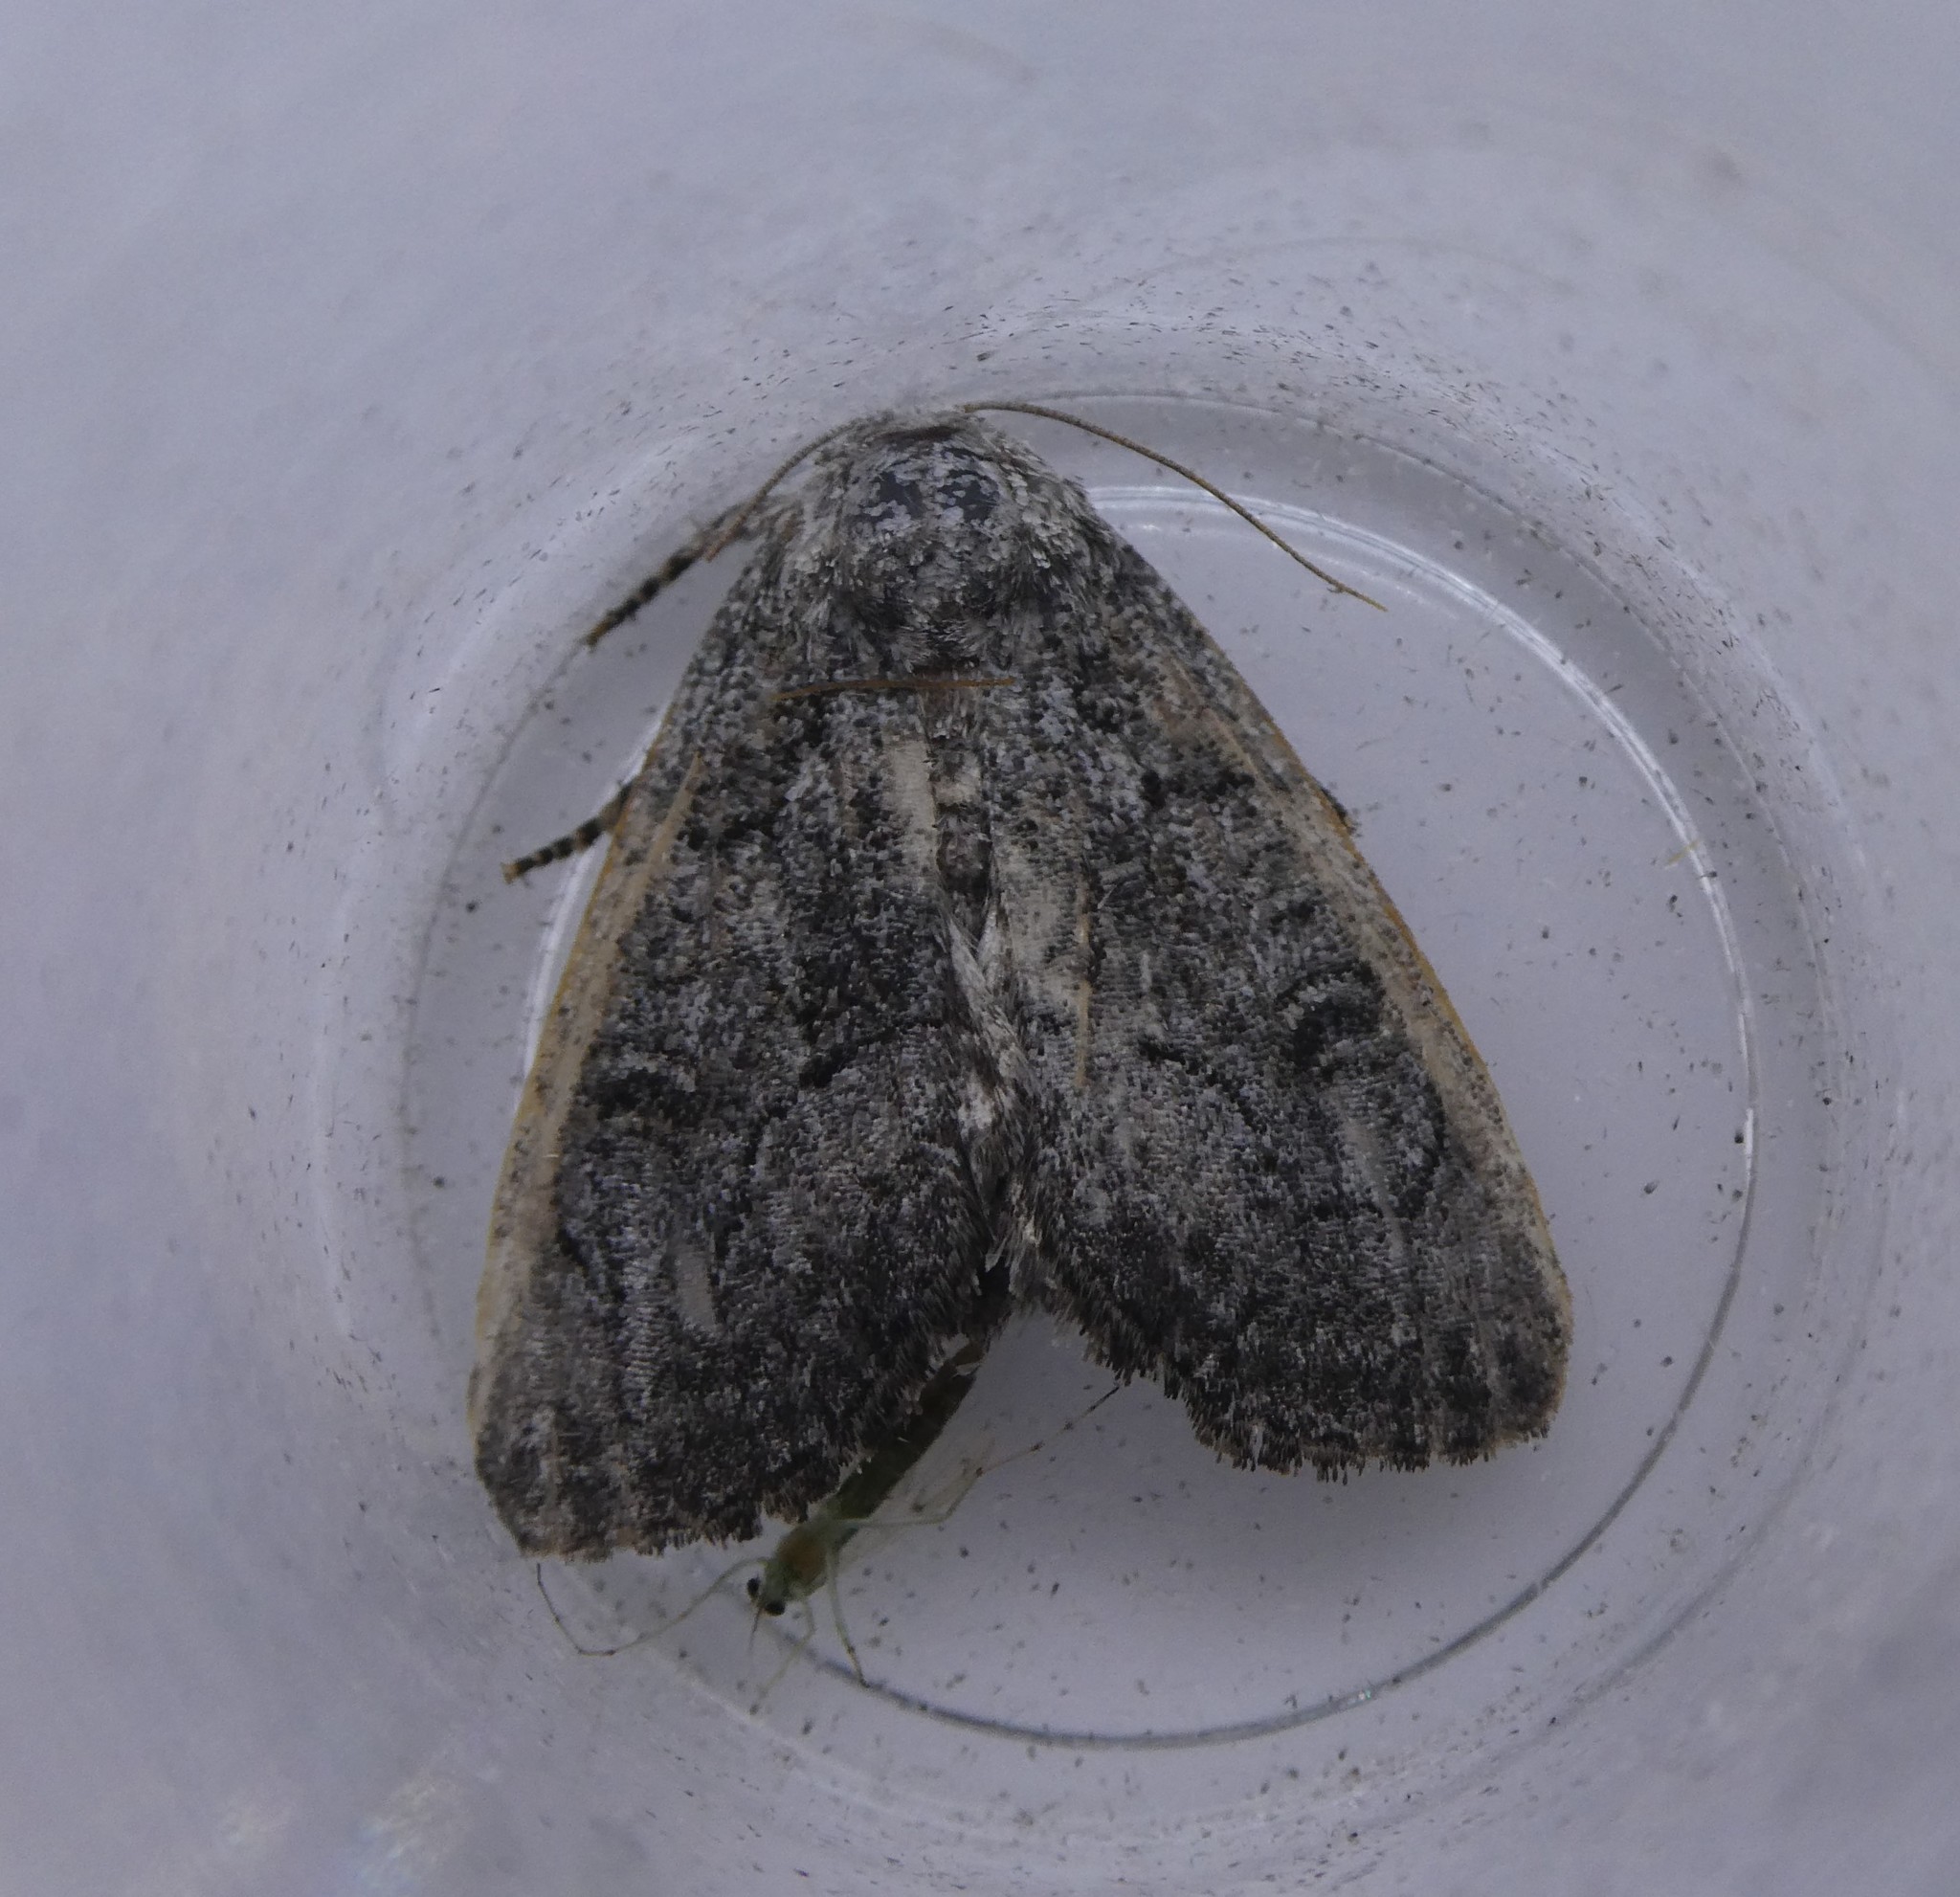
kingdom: Animalia
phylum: Arthropoda
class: Insecta
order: Lepidoptera
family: Noctuidae
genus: Raphia
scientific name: Raphia frater
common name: Brother
